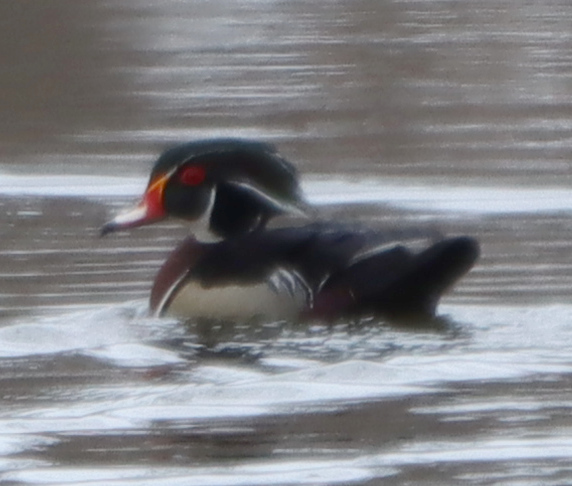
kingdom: Animalia
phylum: Chordata
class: Aves
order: Anseriformes
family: Anatidae
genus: Aix
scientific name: Aix sponsa
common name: Wood duck
